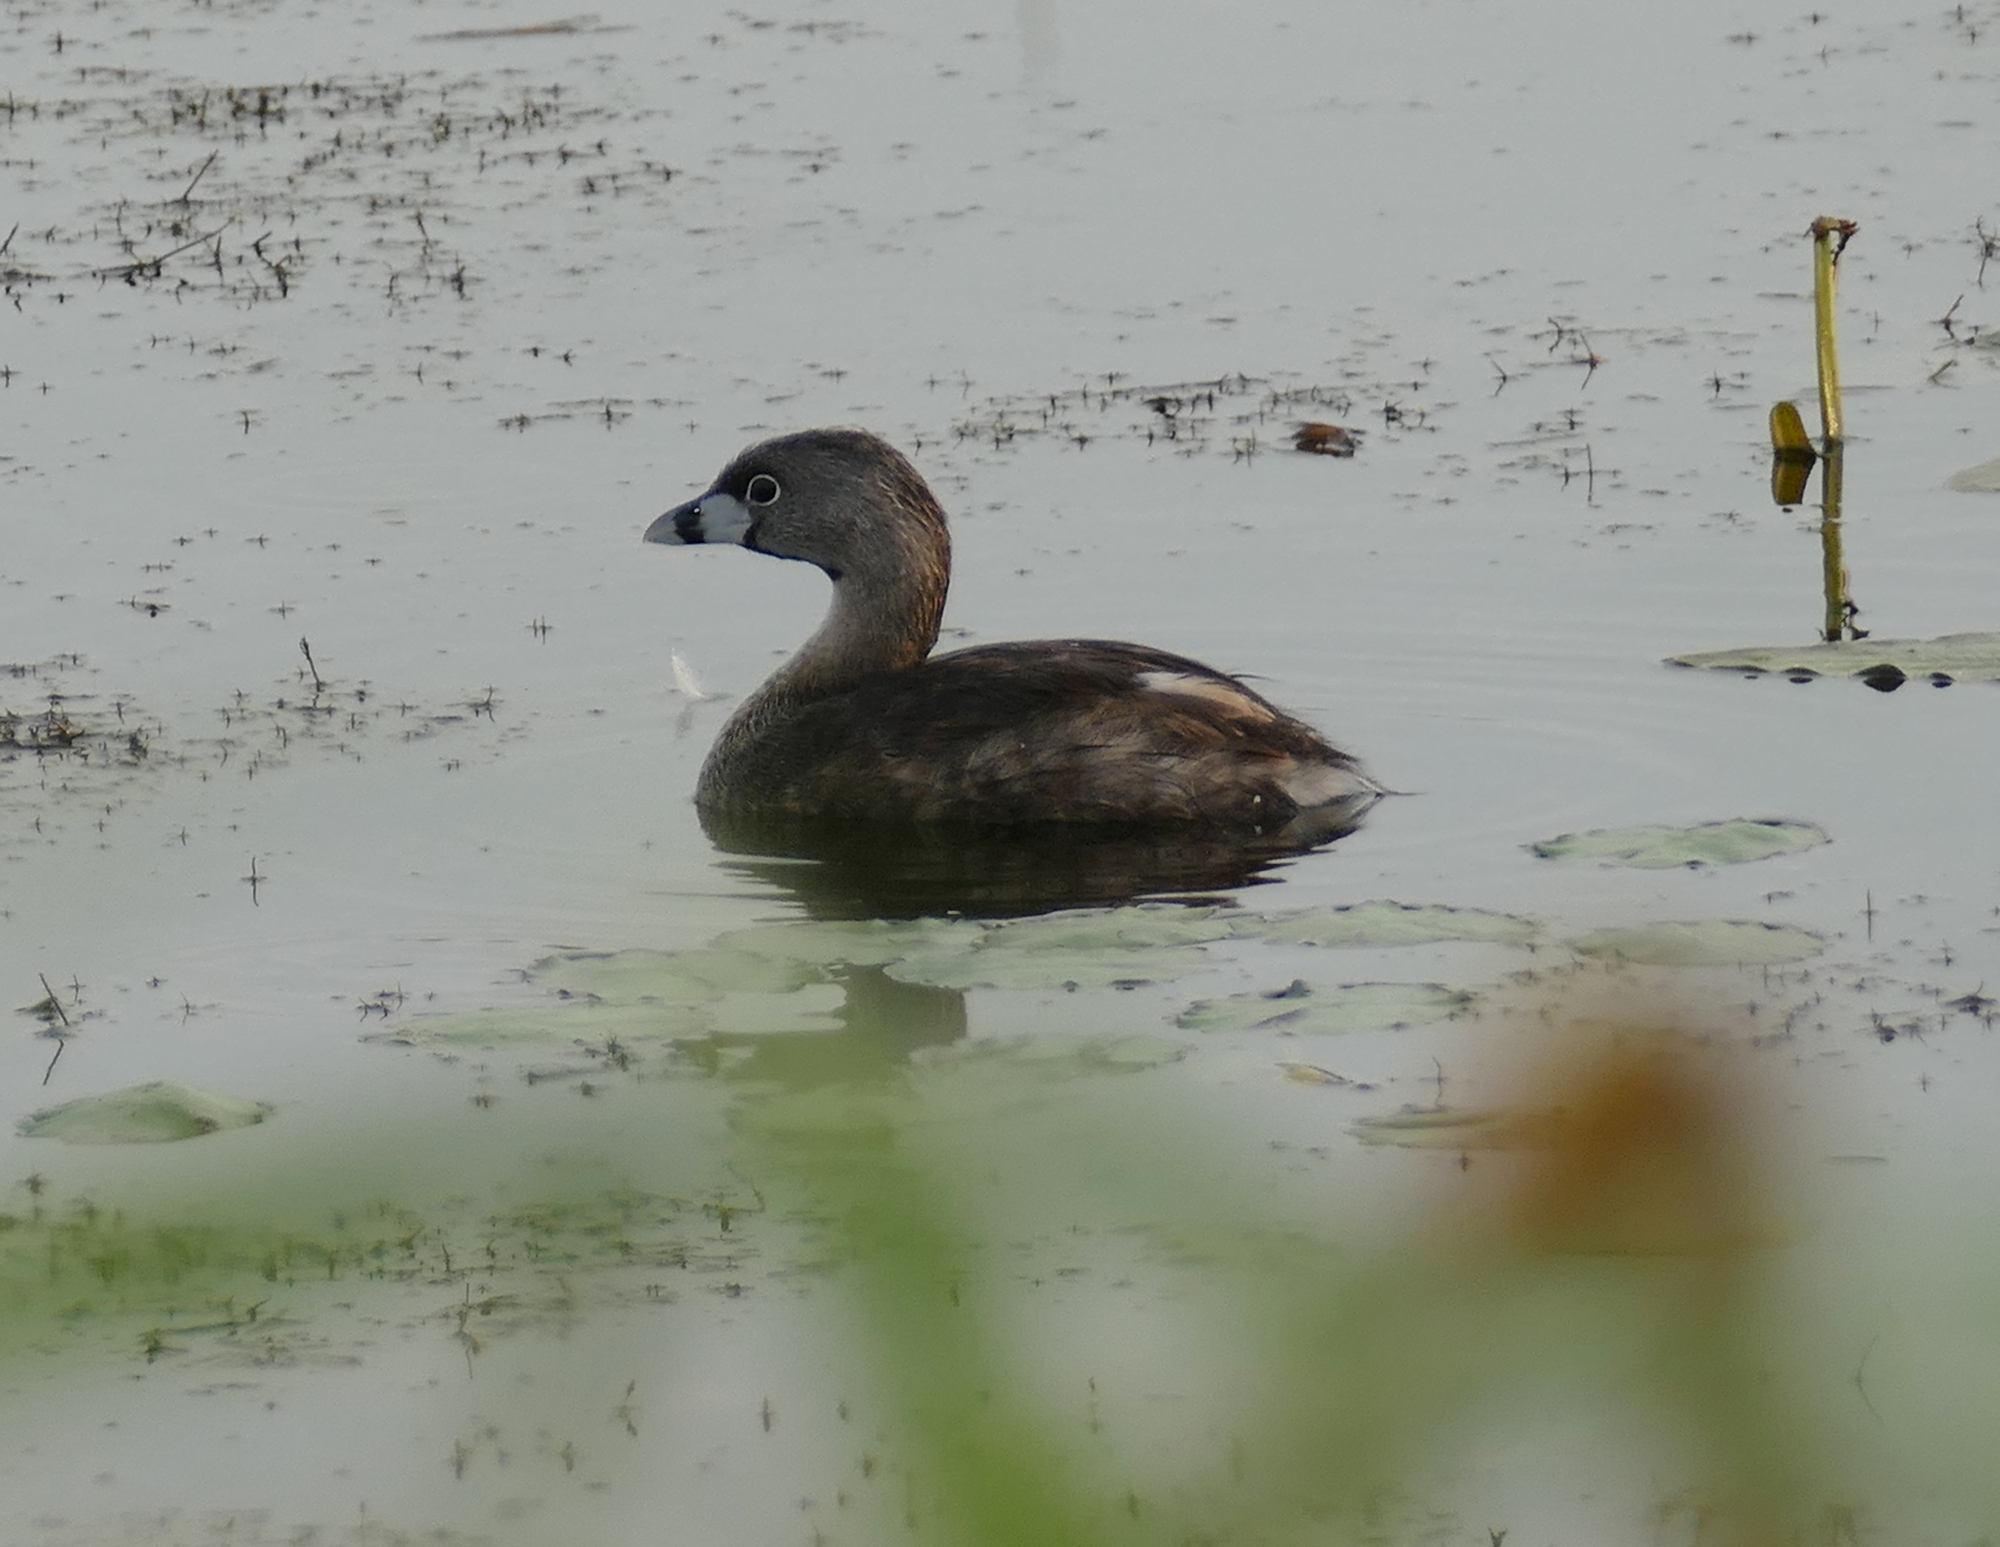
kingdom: Animalia
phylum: Chordata
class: Aves
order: Podicipediformes
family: Podicipedidae
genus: Podilymbus
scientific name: Podilymbus podiceps
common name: Pied-billed grebe
